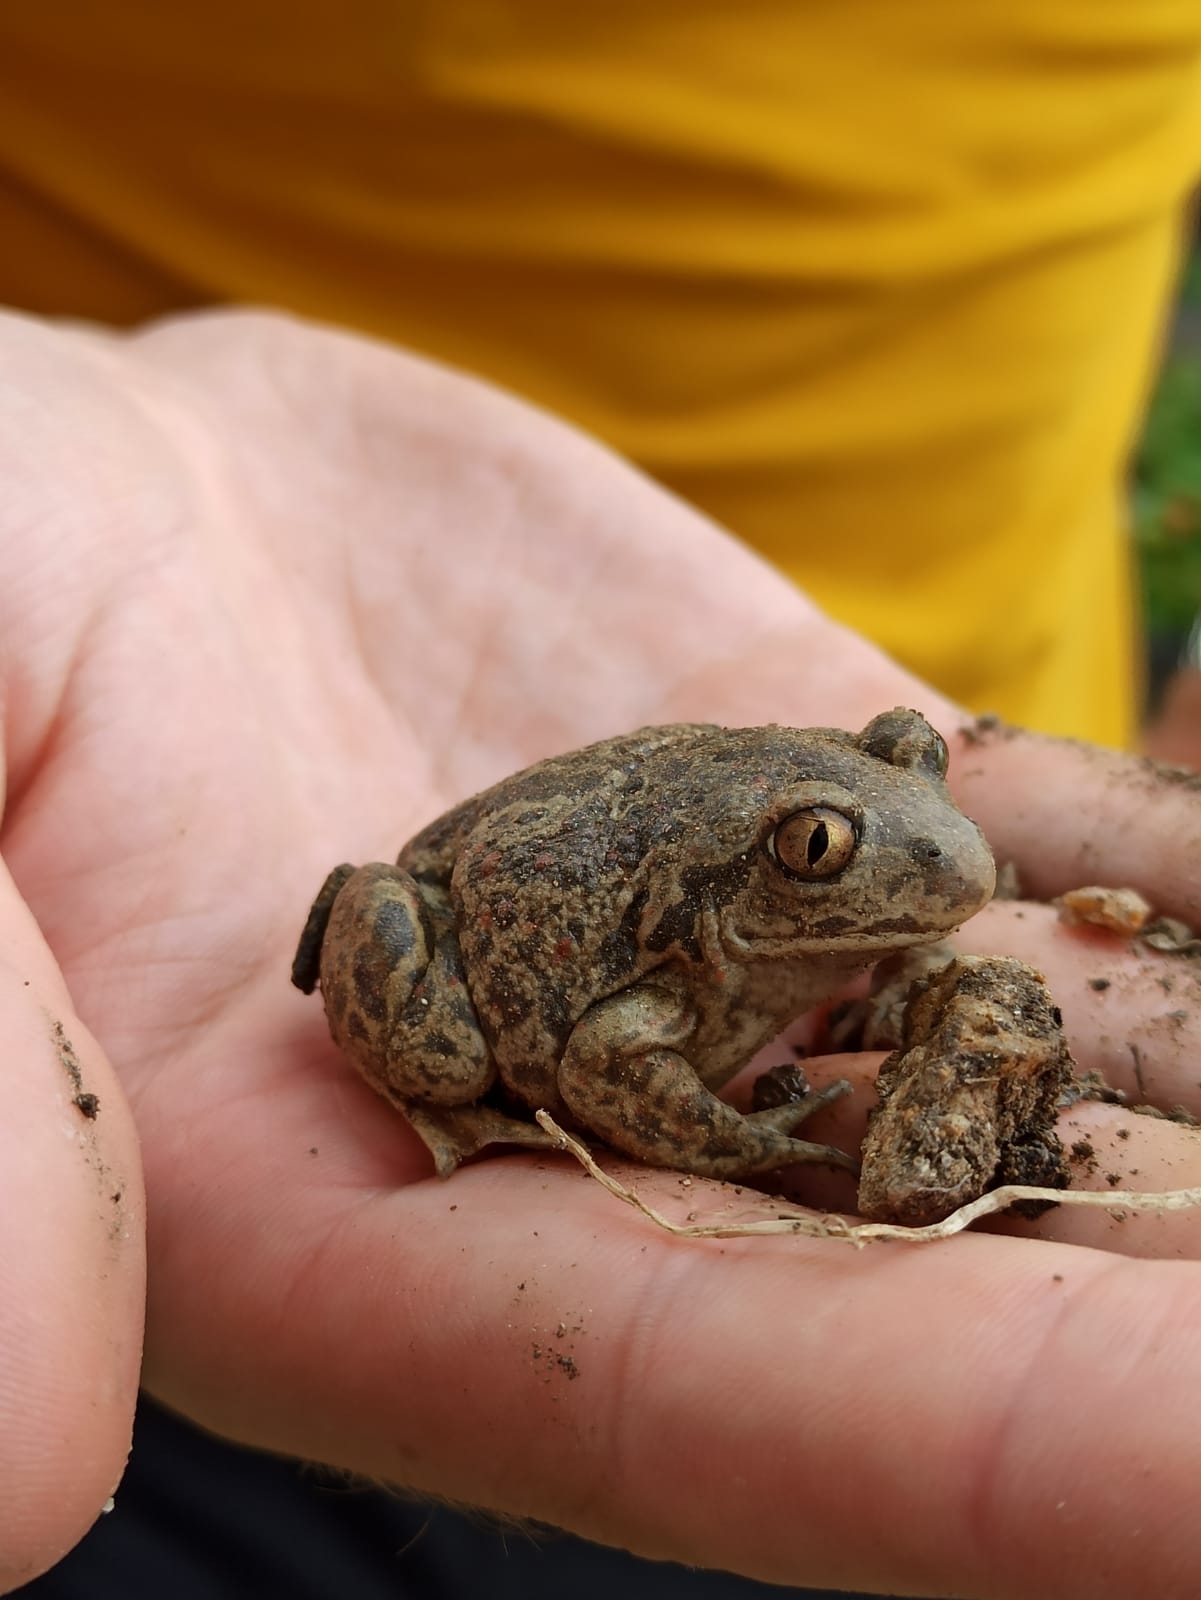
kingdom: Animalia
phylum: Chordata
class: Amphibia
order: Anura
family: Pelobatidae
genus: Pelobates
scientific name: Pelobates fuscus
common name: Common eurasian spadefoot toad
